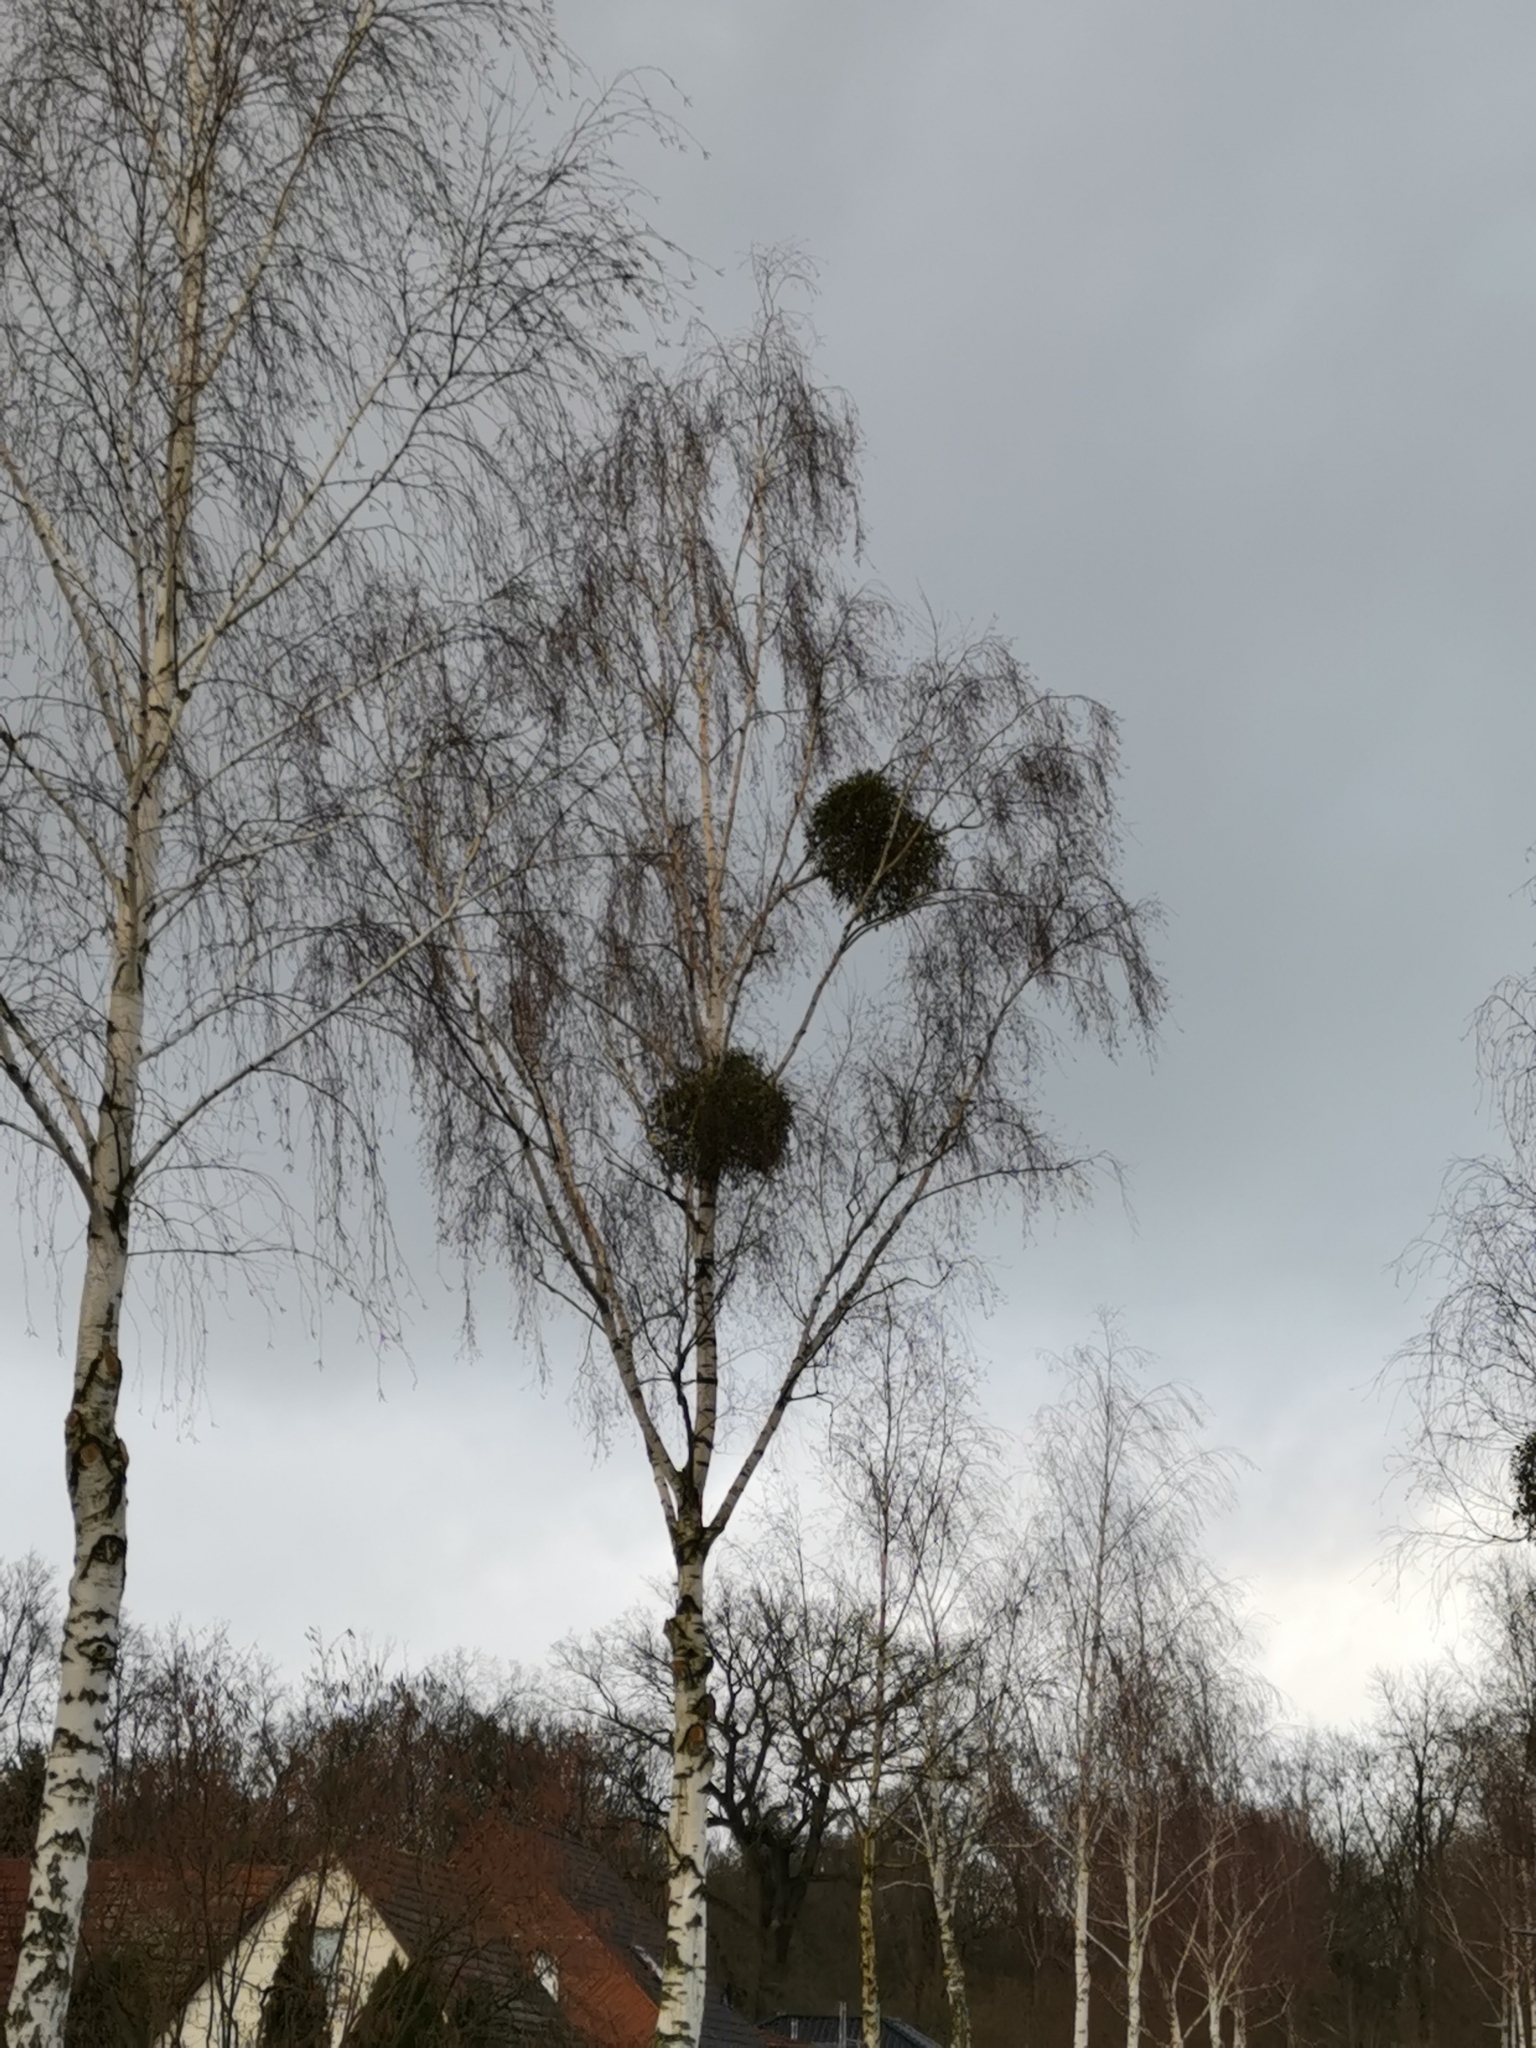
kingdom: Plantae
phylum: Tracheophyta
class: Magnoliopsida
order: Santalales
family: Viscaceae
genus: Viscum
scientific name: Viscum album
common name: Mistletoe
